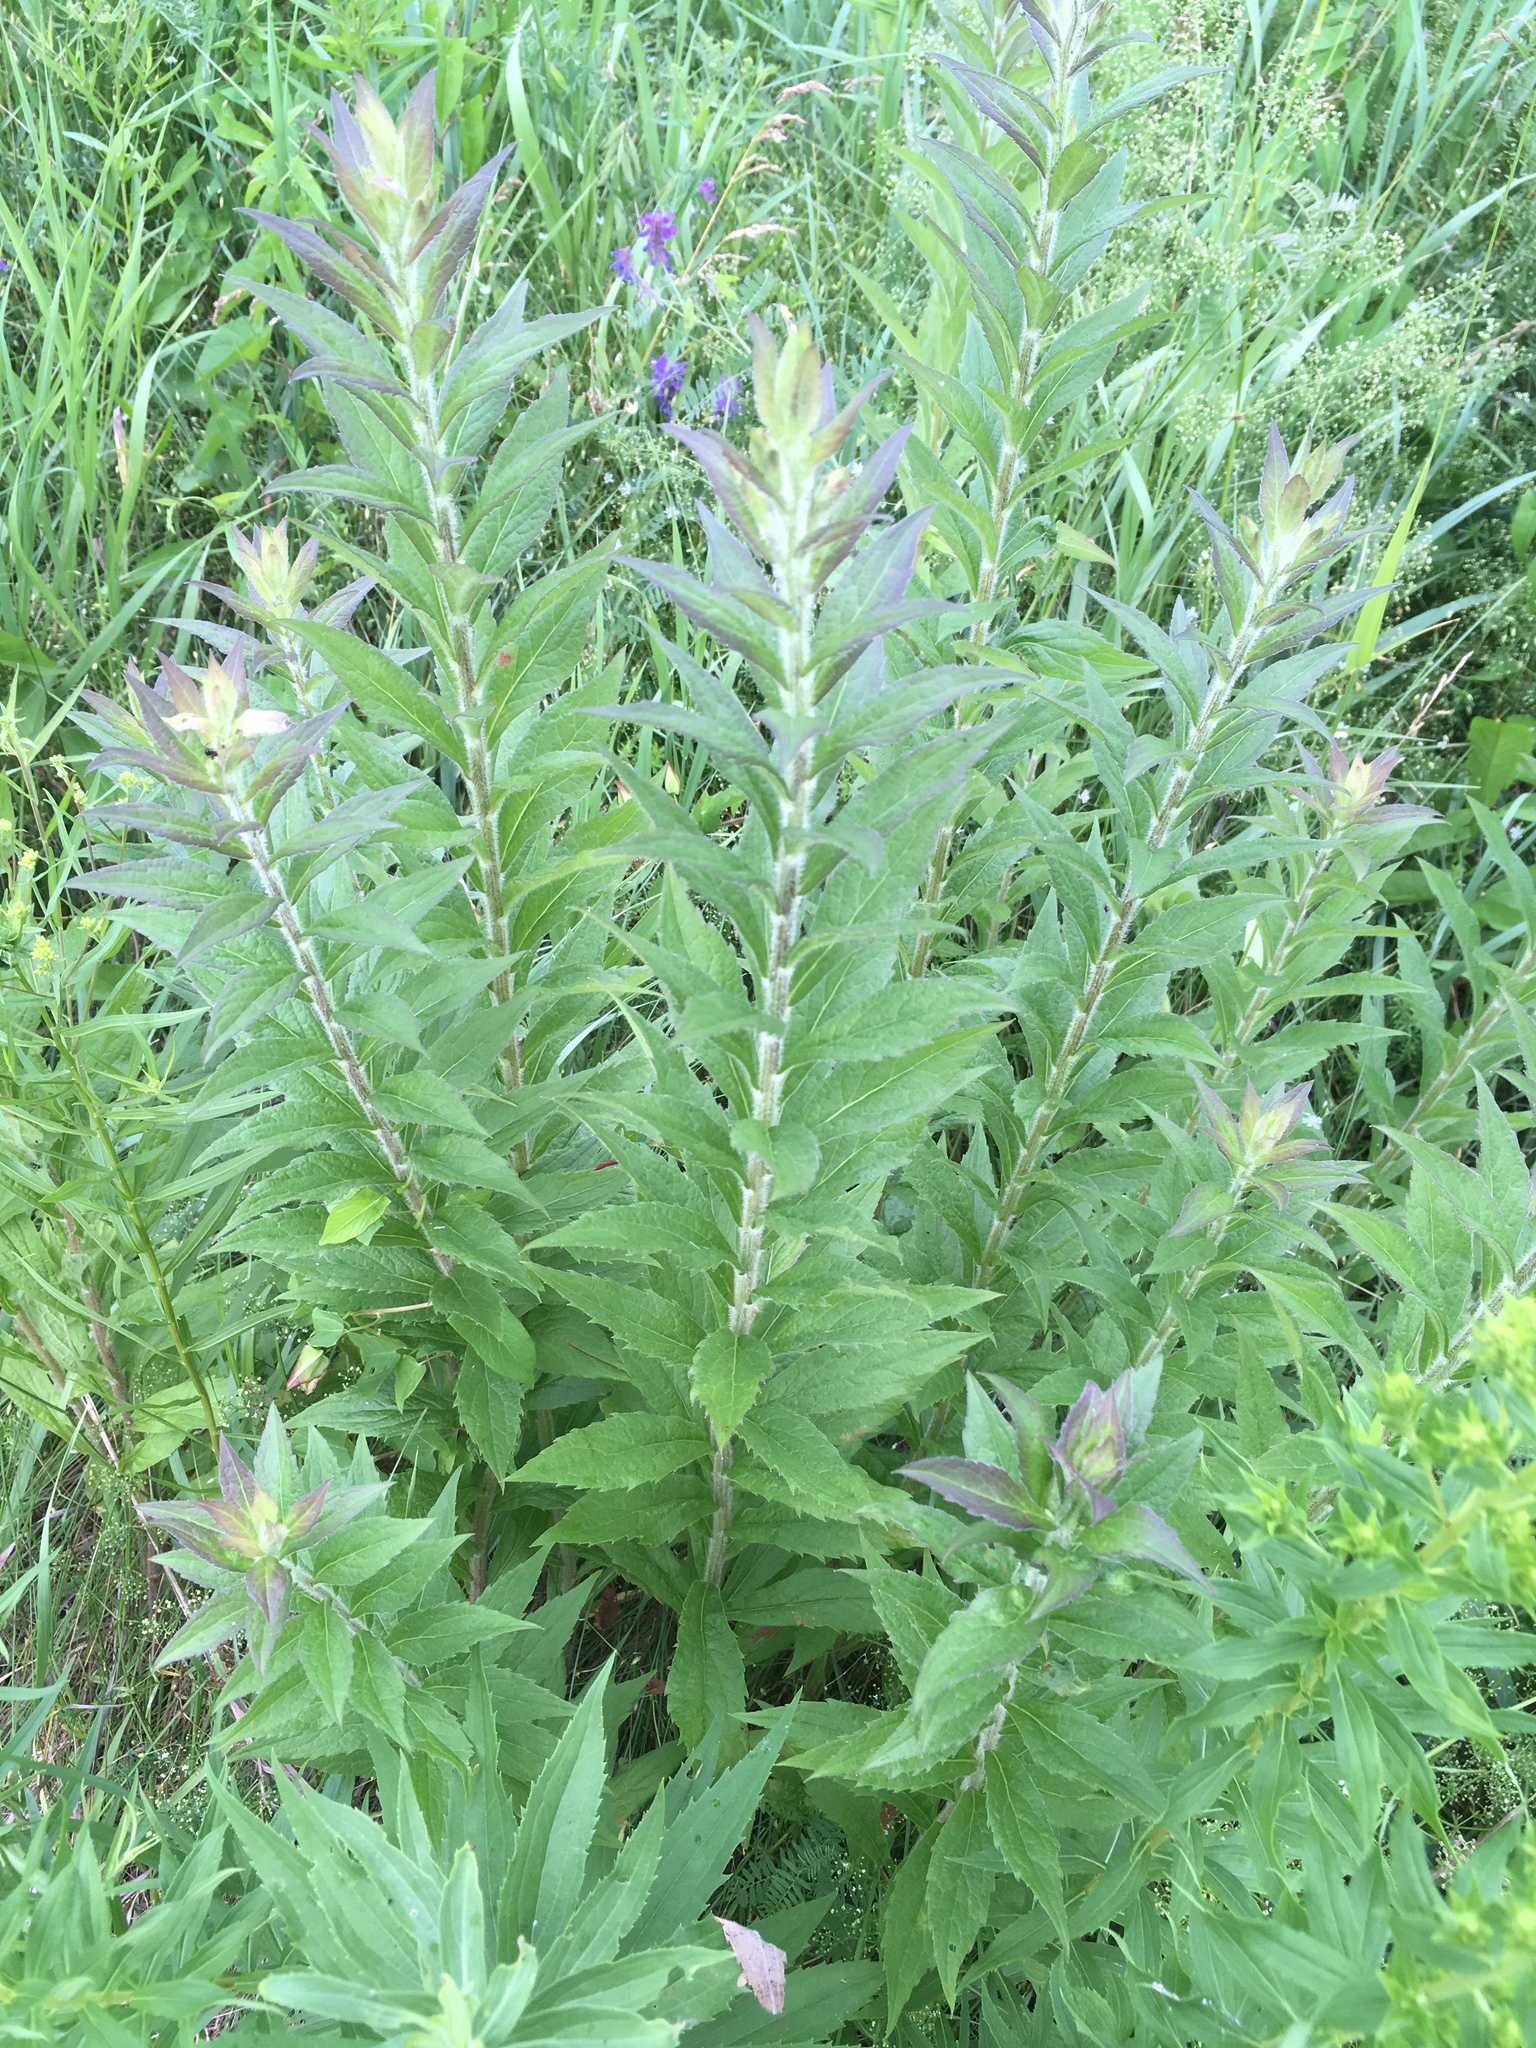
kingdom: Plantae
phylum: Tracheophyta
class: Magnoliopsida
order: Asterales
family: Asteraceae
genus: Solidago
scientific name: Solidago rugosa
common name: Rough-stemmed goldenrod
